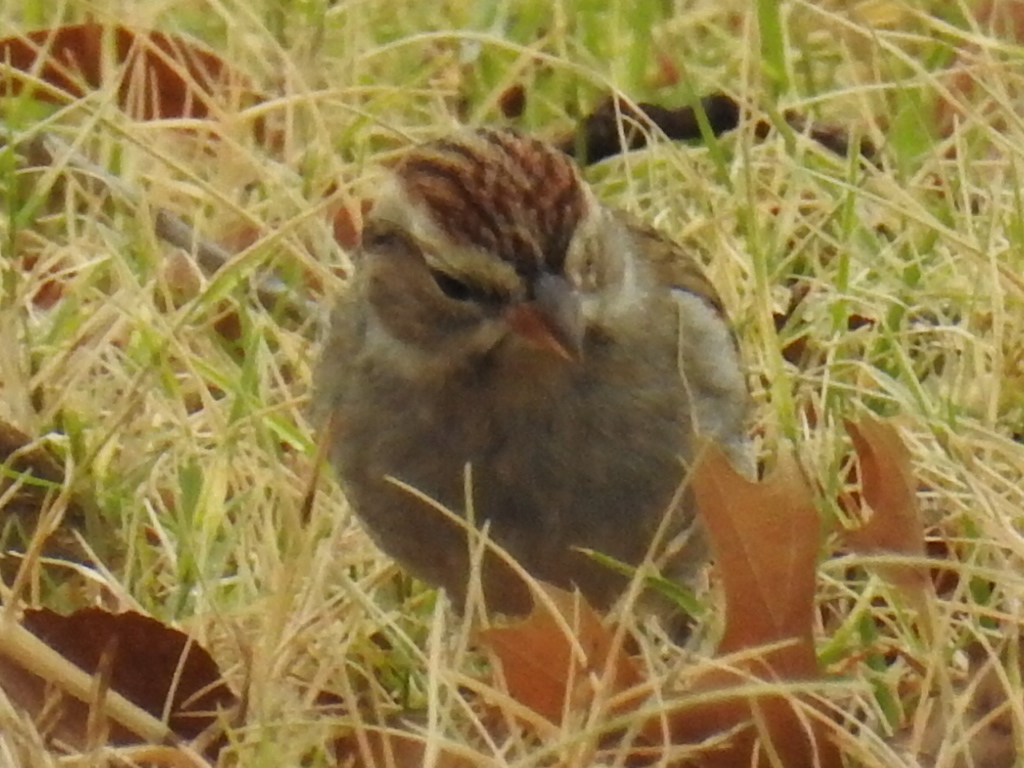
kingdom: Animalia
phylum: Chordata
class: Aves
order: Passeriformes
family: Passerellidae
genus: Spizella
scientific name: Spizella passerina
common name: Chipping sparrow
